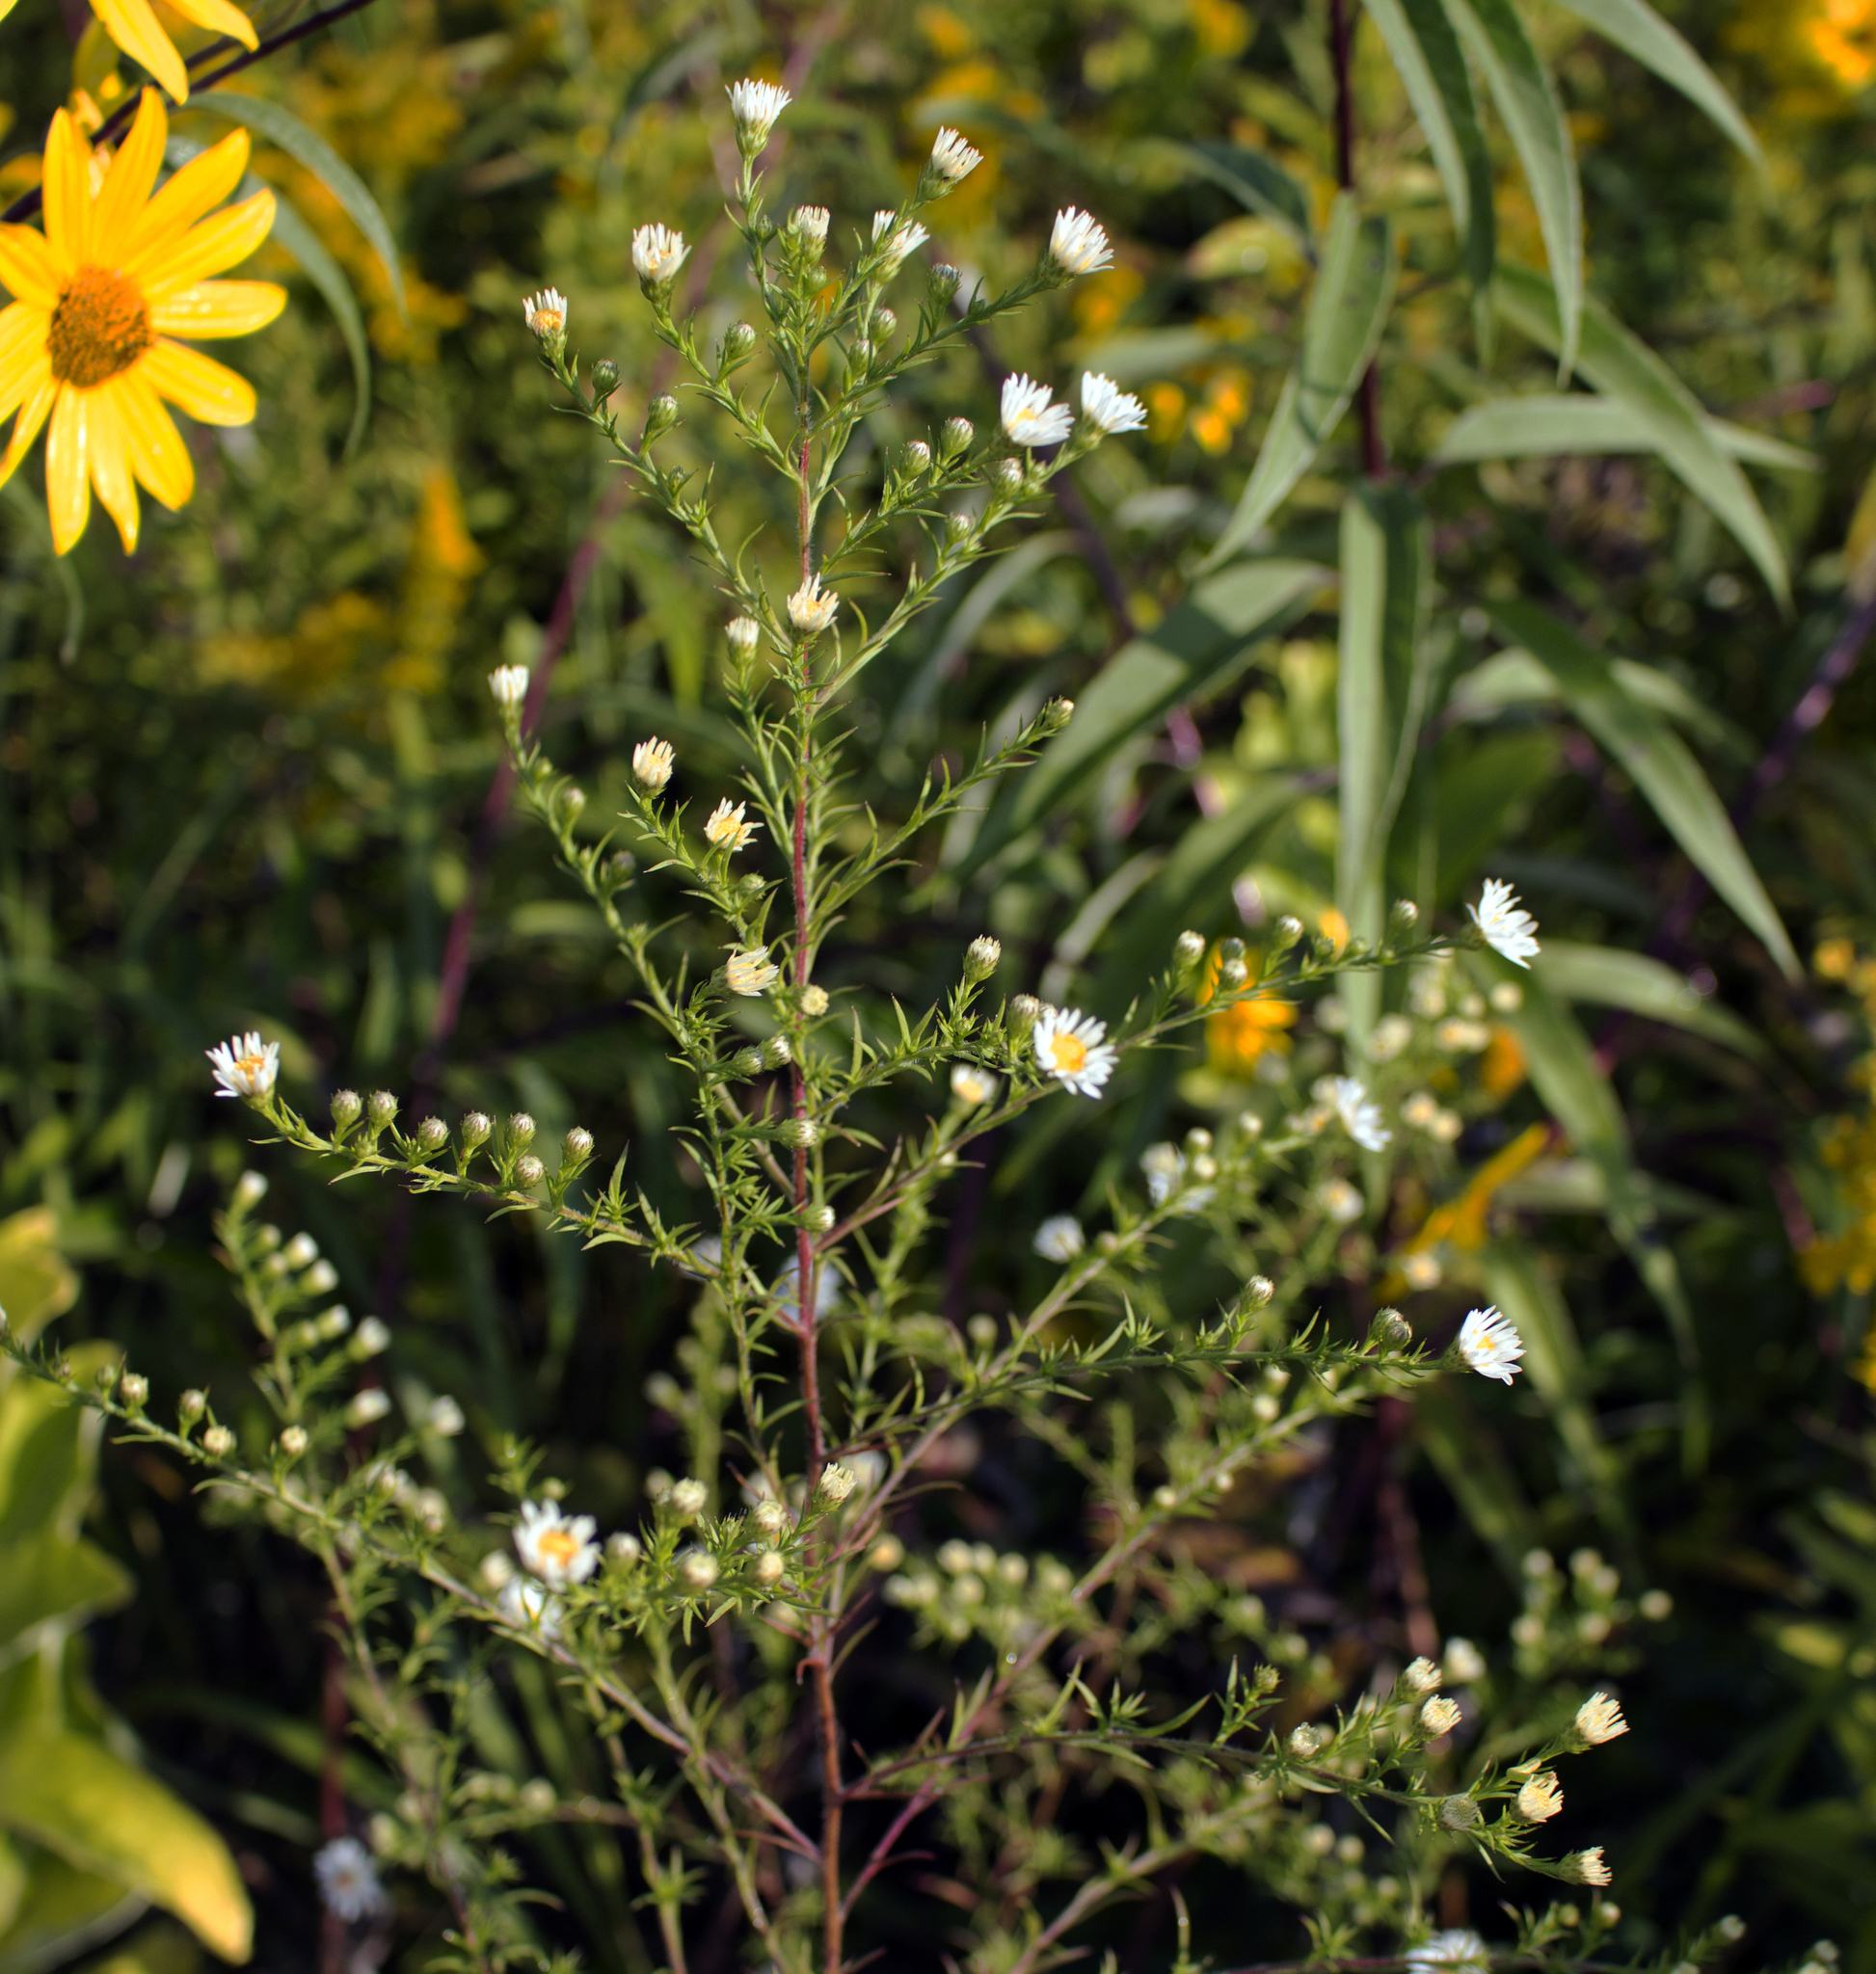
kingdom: Plantae
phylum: Tracheophyta
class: Magnoliopsida
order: Asterales
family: Asteraceae
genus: Symphyotrichum
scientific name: Symphyotrichum pilosum
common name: Awl aster
